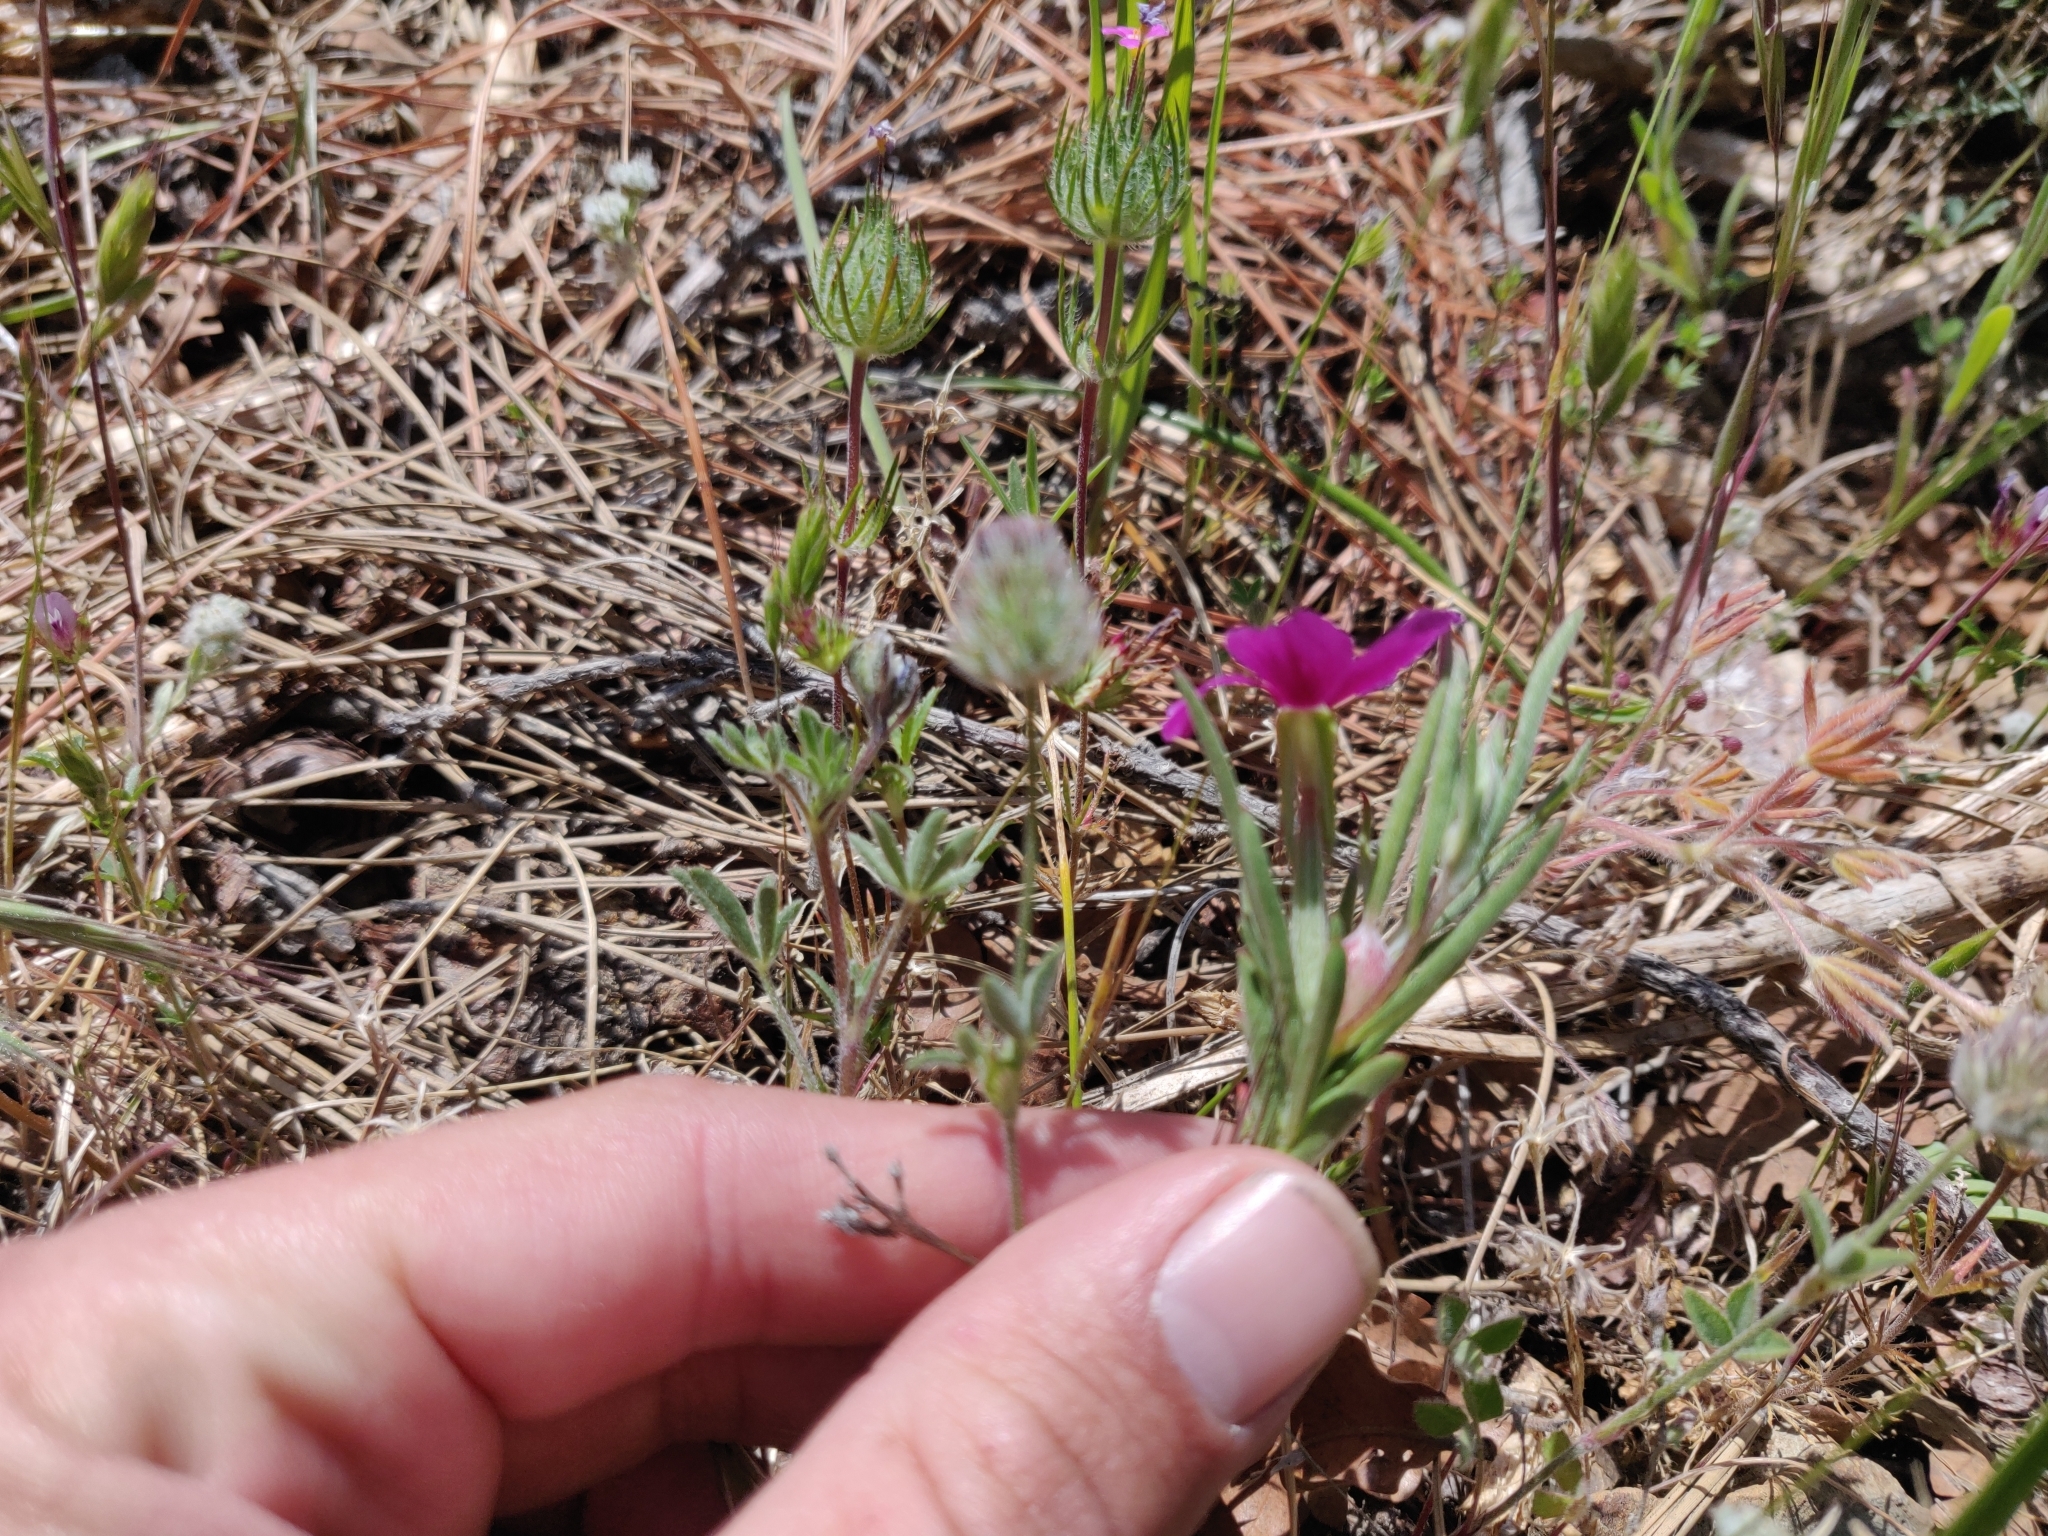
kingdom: Plantae
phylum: Tracheophyta
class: Magnoliopsida
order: Ericales
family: Polemoniaceae
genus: Leptosiphon
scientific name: Leptosiphon ciliatus
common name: Whiskerbrush
